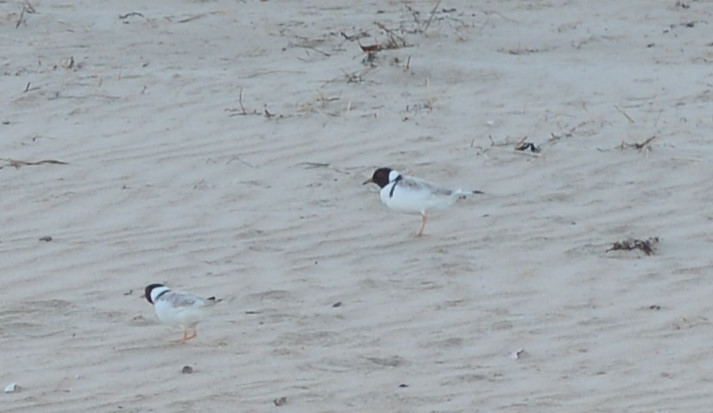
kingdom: Animalia
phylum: Chordata
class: Aves
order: Charadriiformes
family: Charadriidae
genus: Thinornis
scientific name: Thinornis cucullatus
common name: Hooded dotterel
